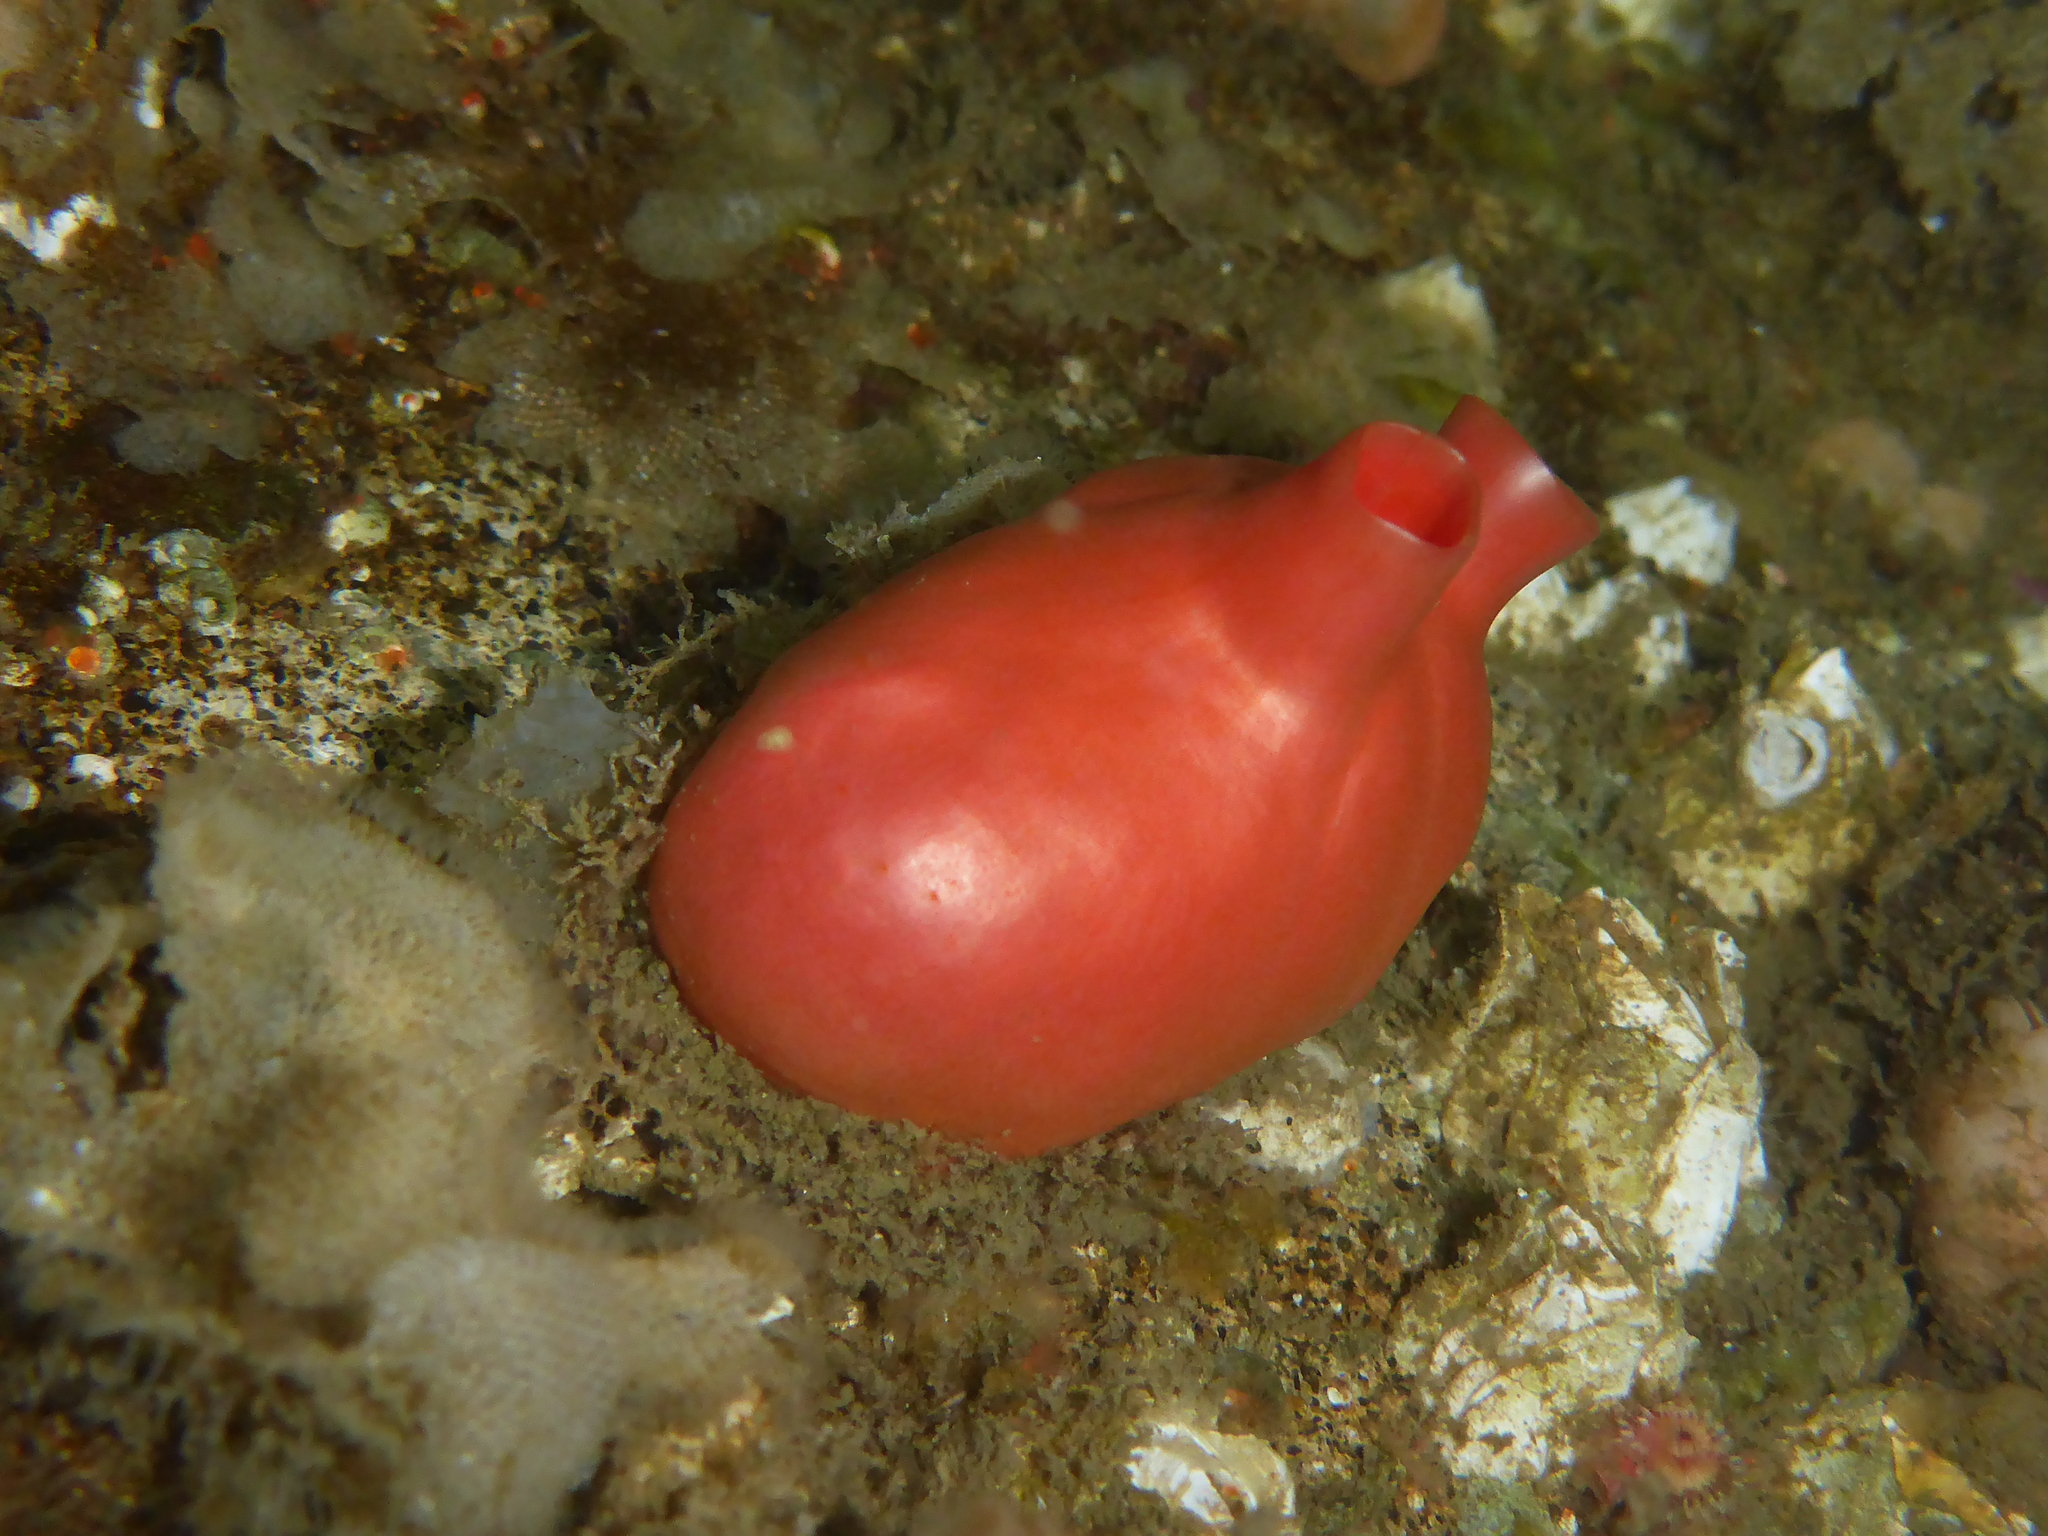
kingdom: Animalia
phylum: Chordata
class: Ascidiacea
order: Stolidobranchia
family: Styelidae
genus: Cnemidocarpa
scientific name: Cnemidocarpa finmarkiensis
